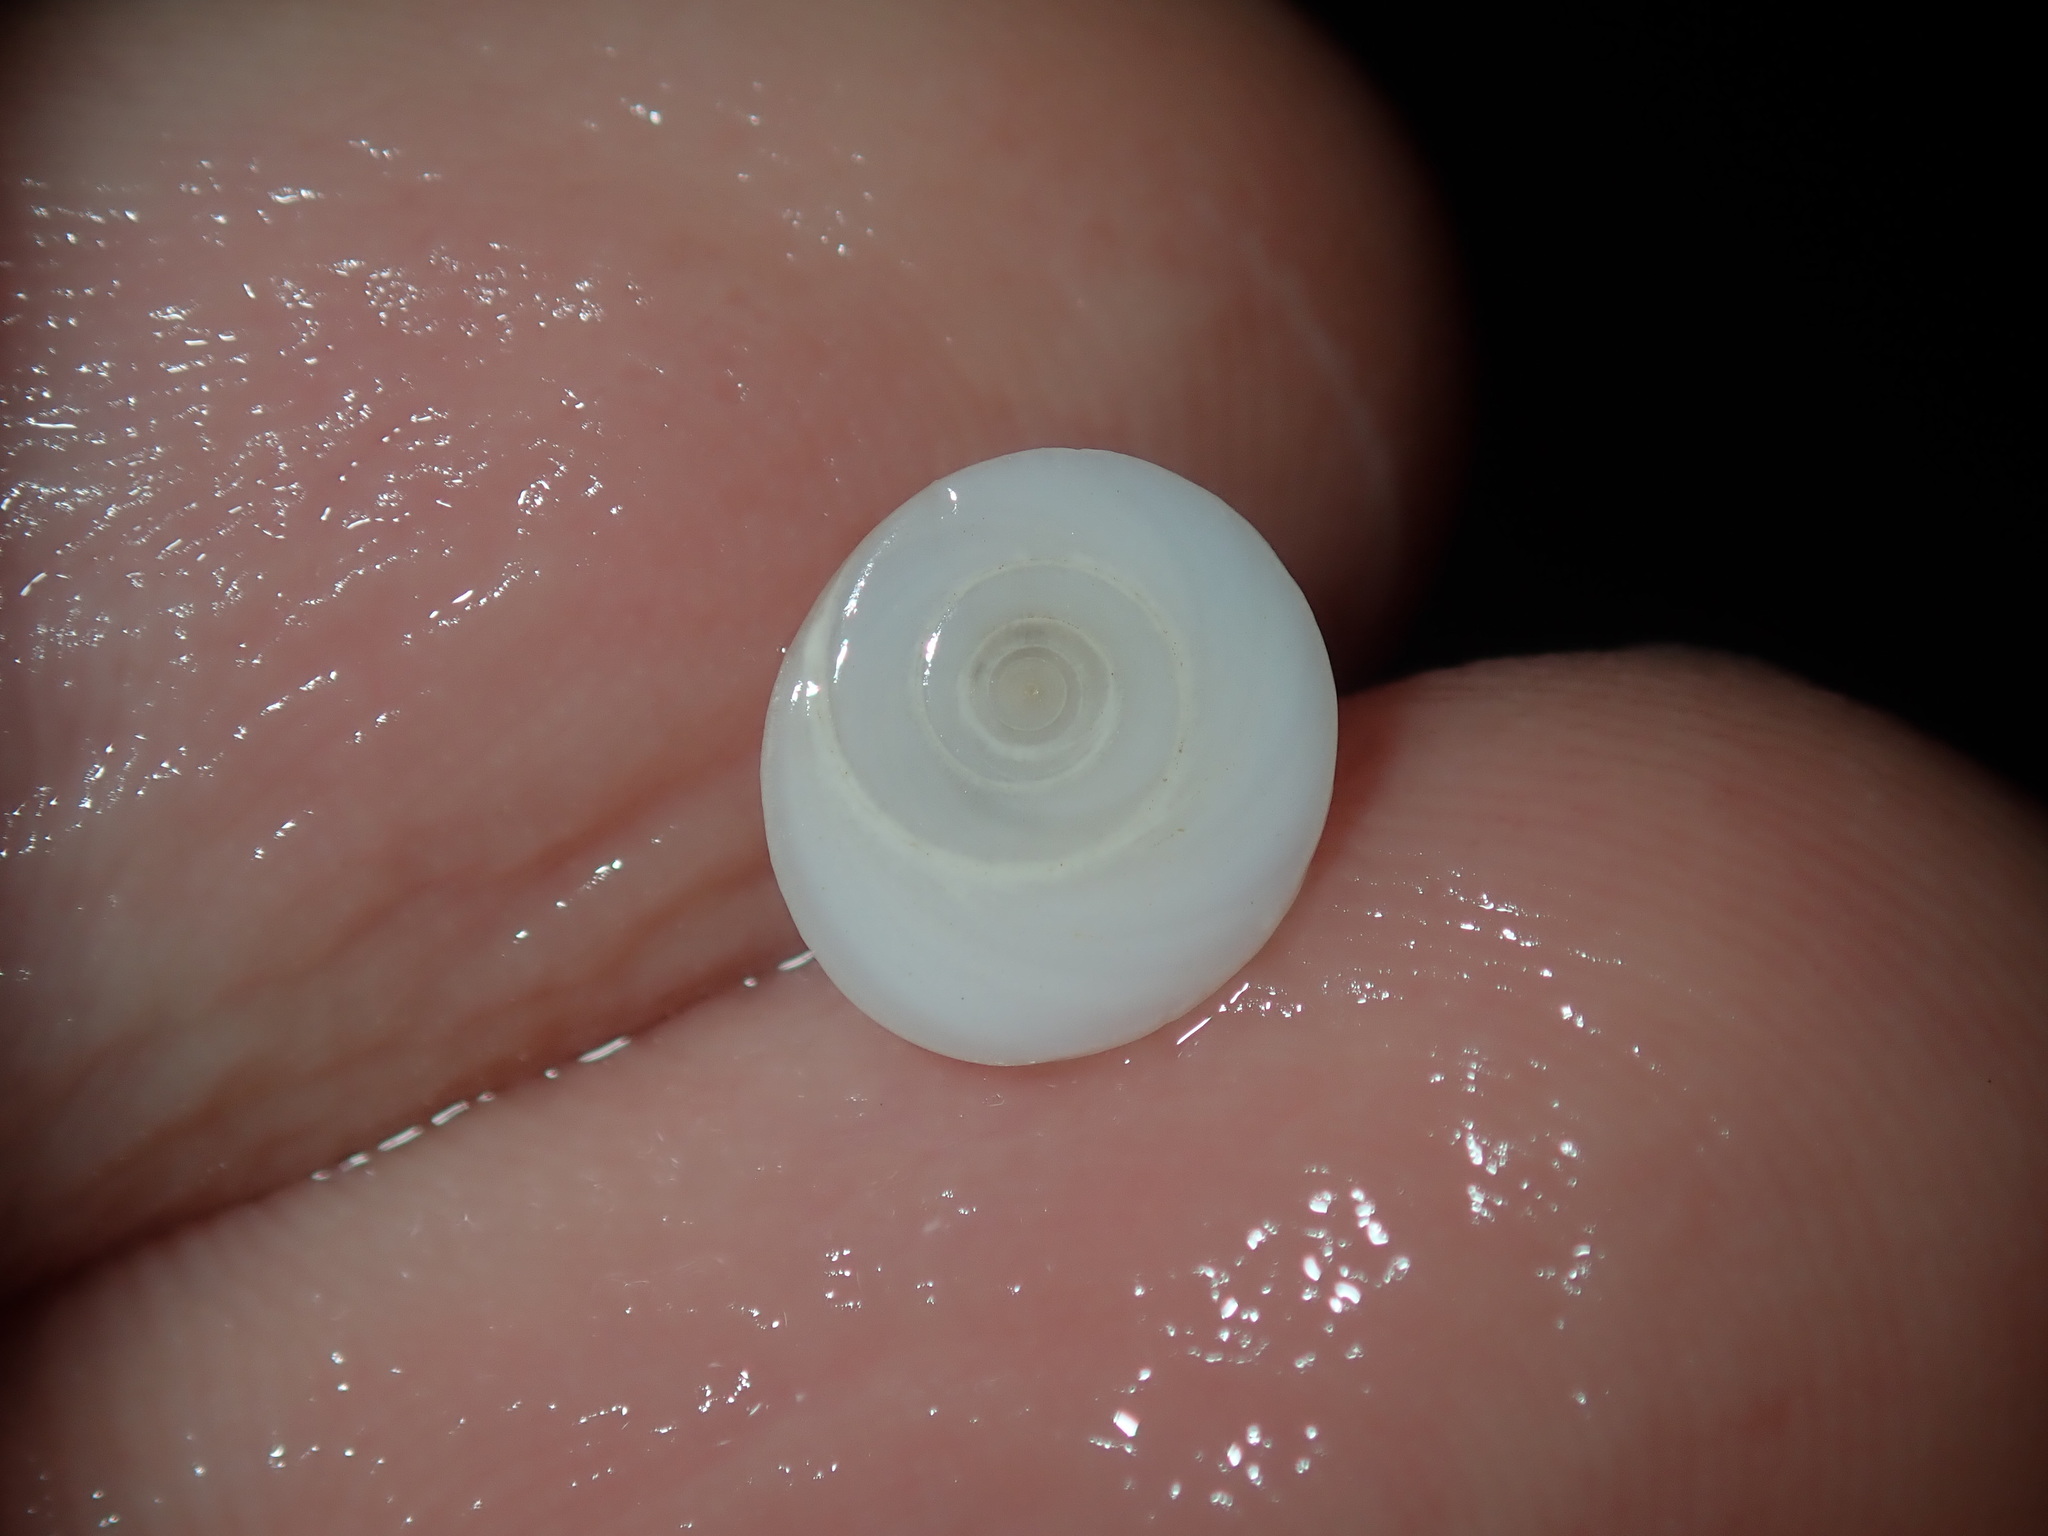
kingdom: Animalia
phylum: Mollusca
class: Gastropoda
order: Trochida
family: Turbinidae
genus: Lunella
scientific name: Lunella torquata
